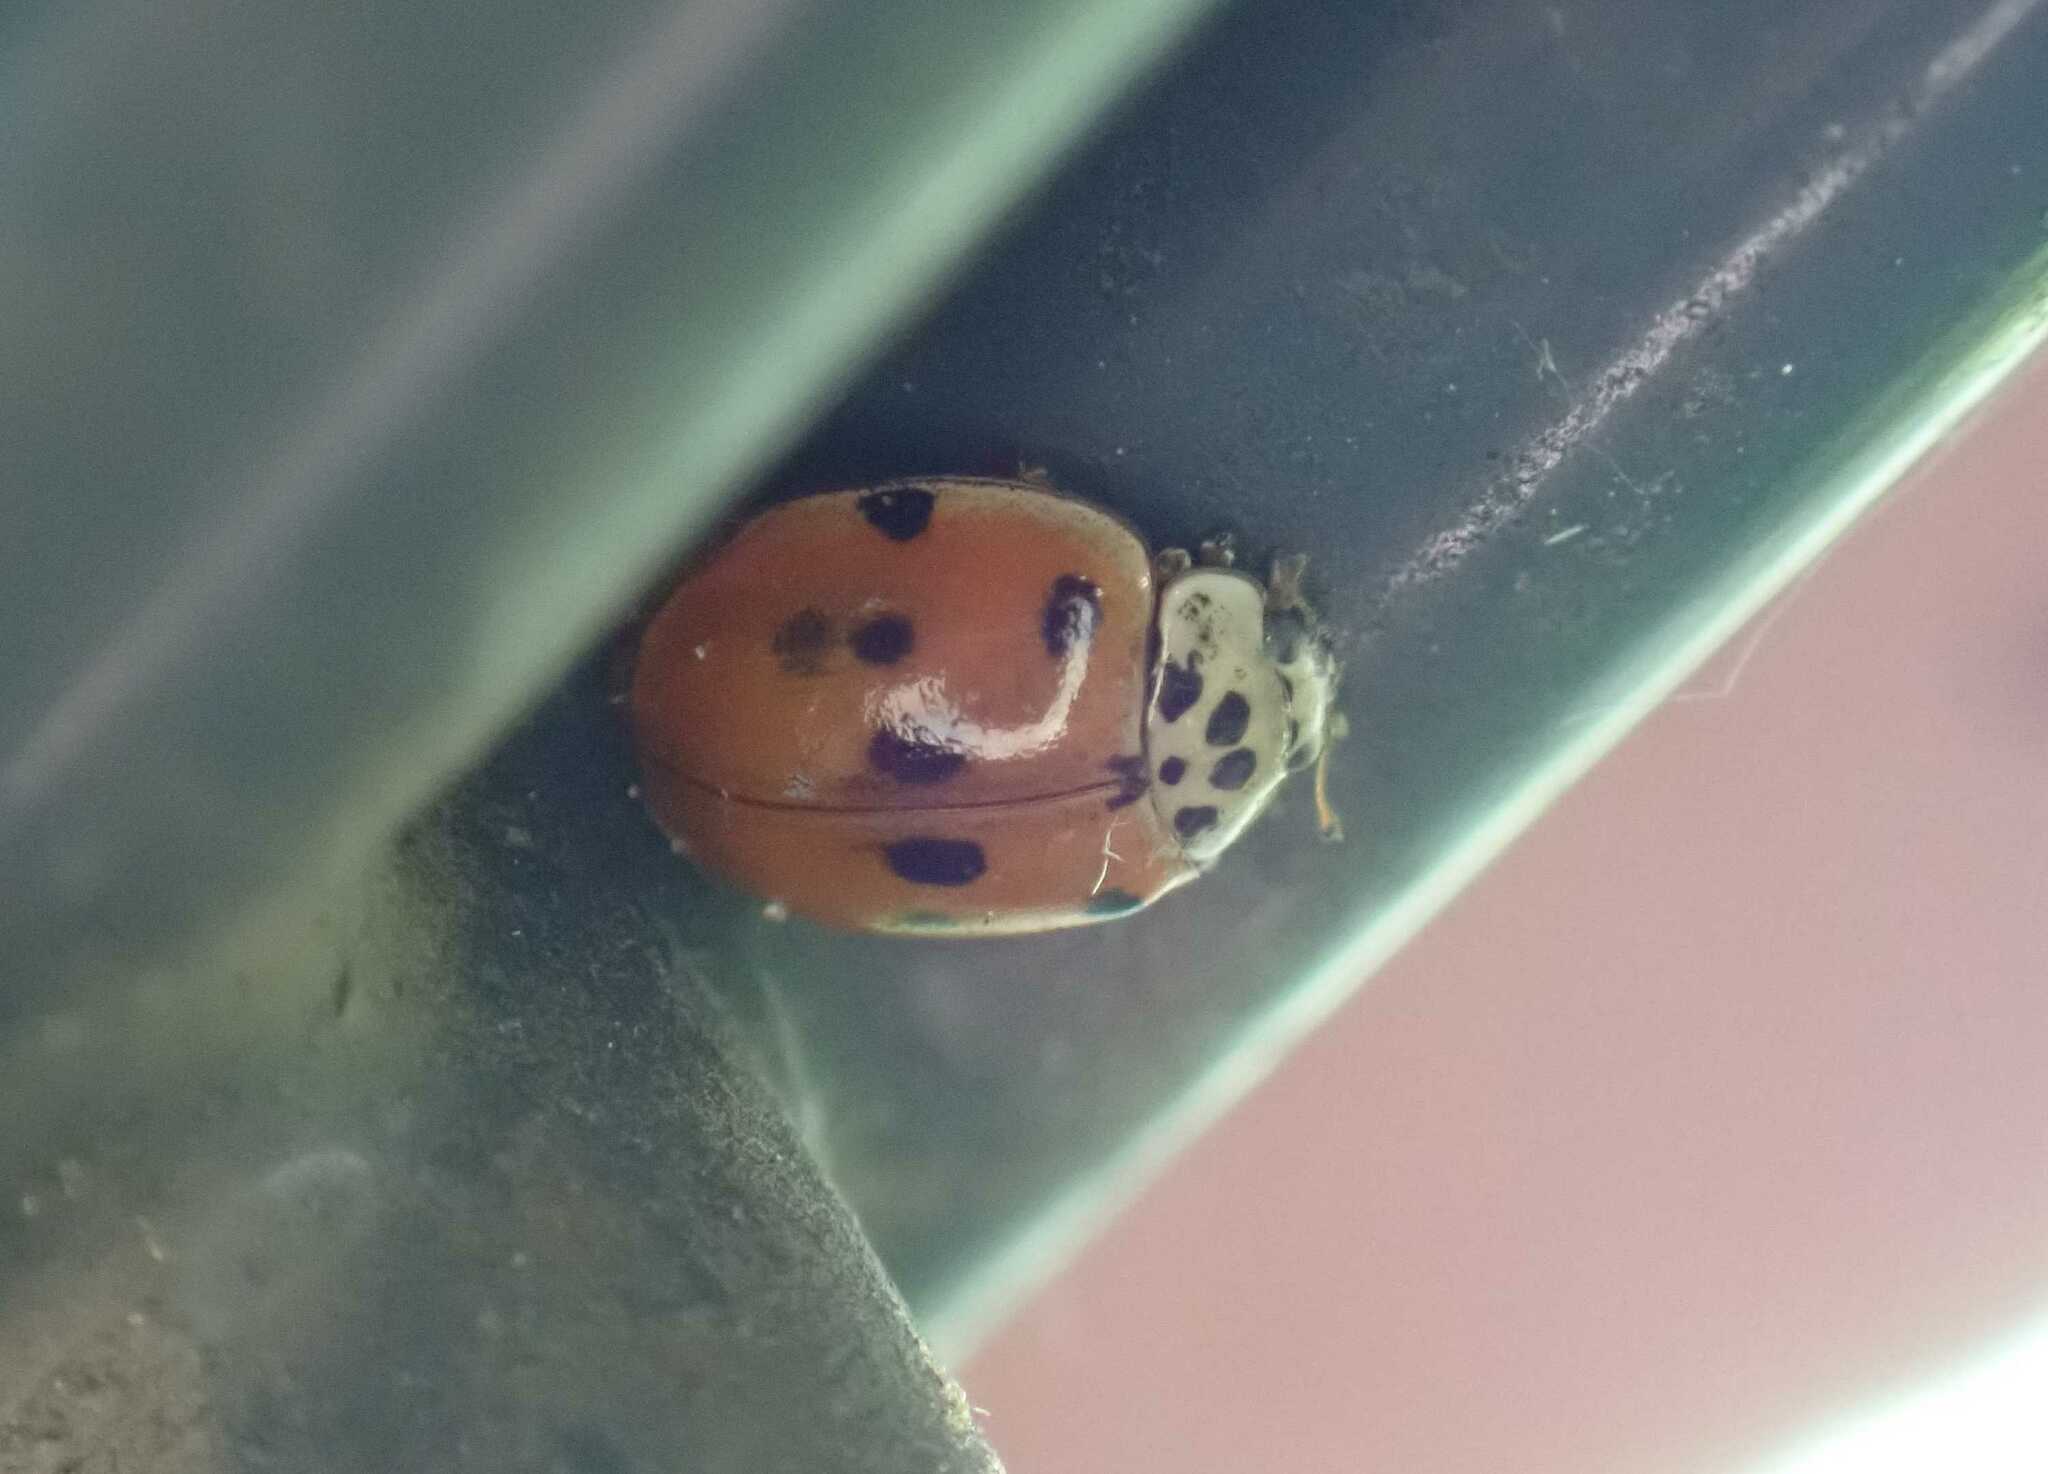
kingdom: Animalia
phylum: Arthropoda
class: Insecta
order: Coleoptera
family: Coccinellidae
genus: Adalia
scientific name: Adalia decempunctata
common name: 10-spot ladybird
